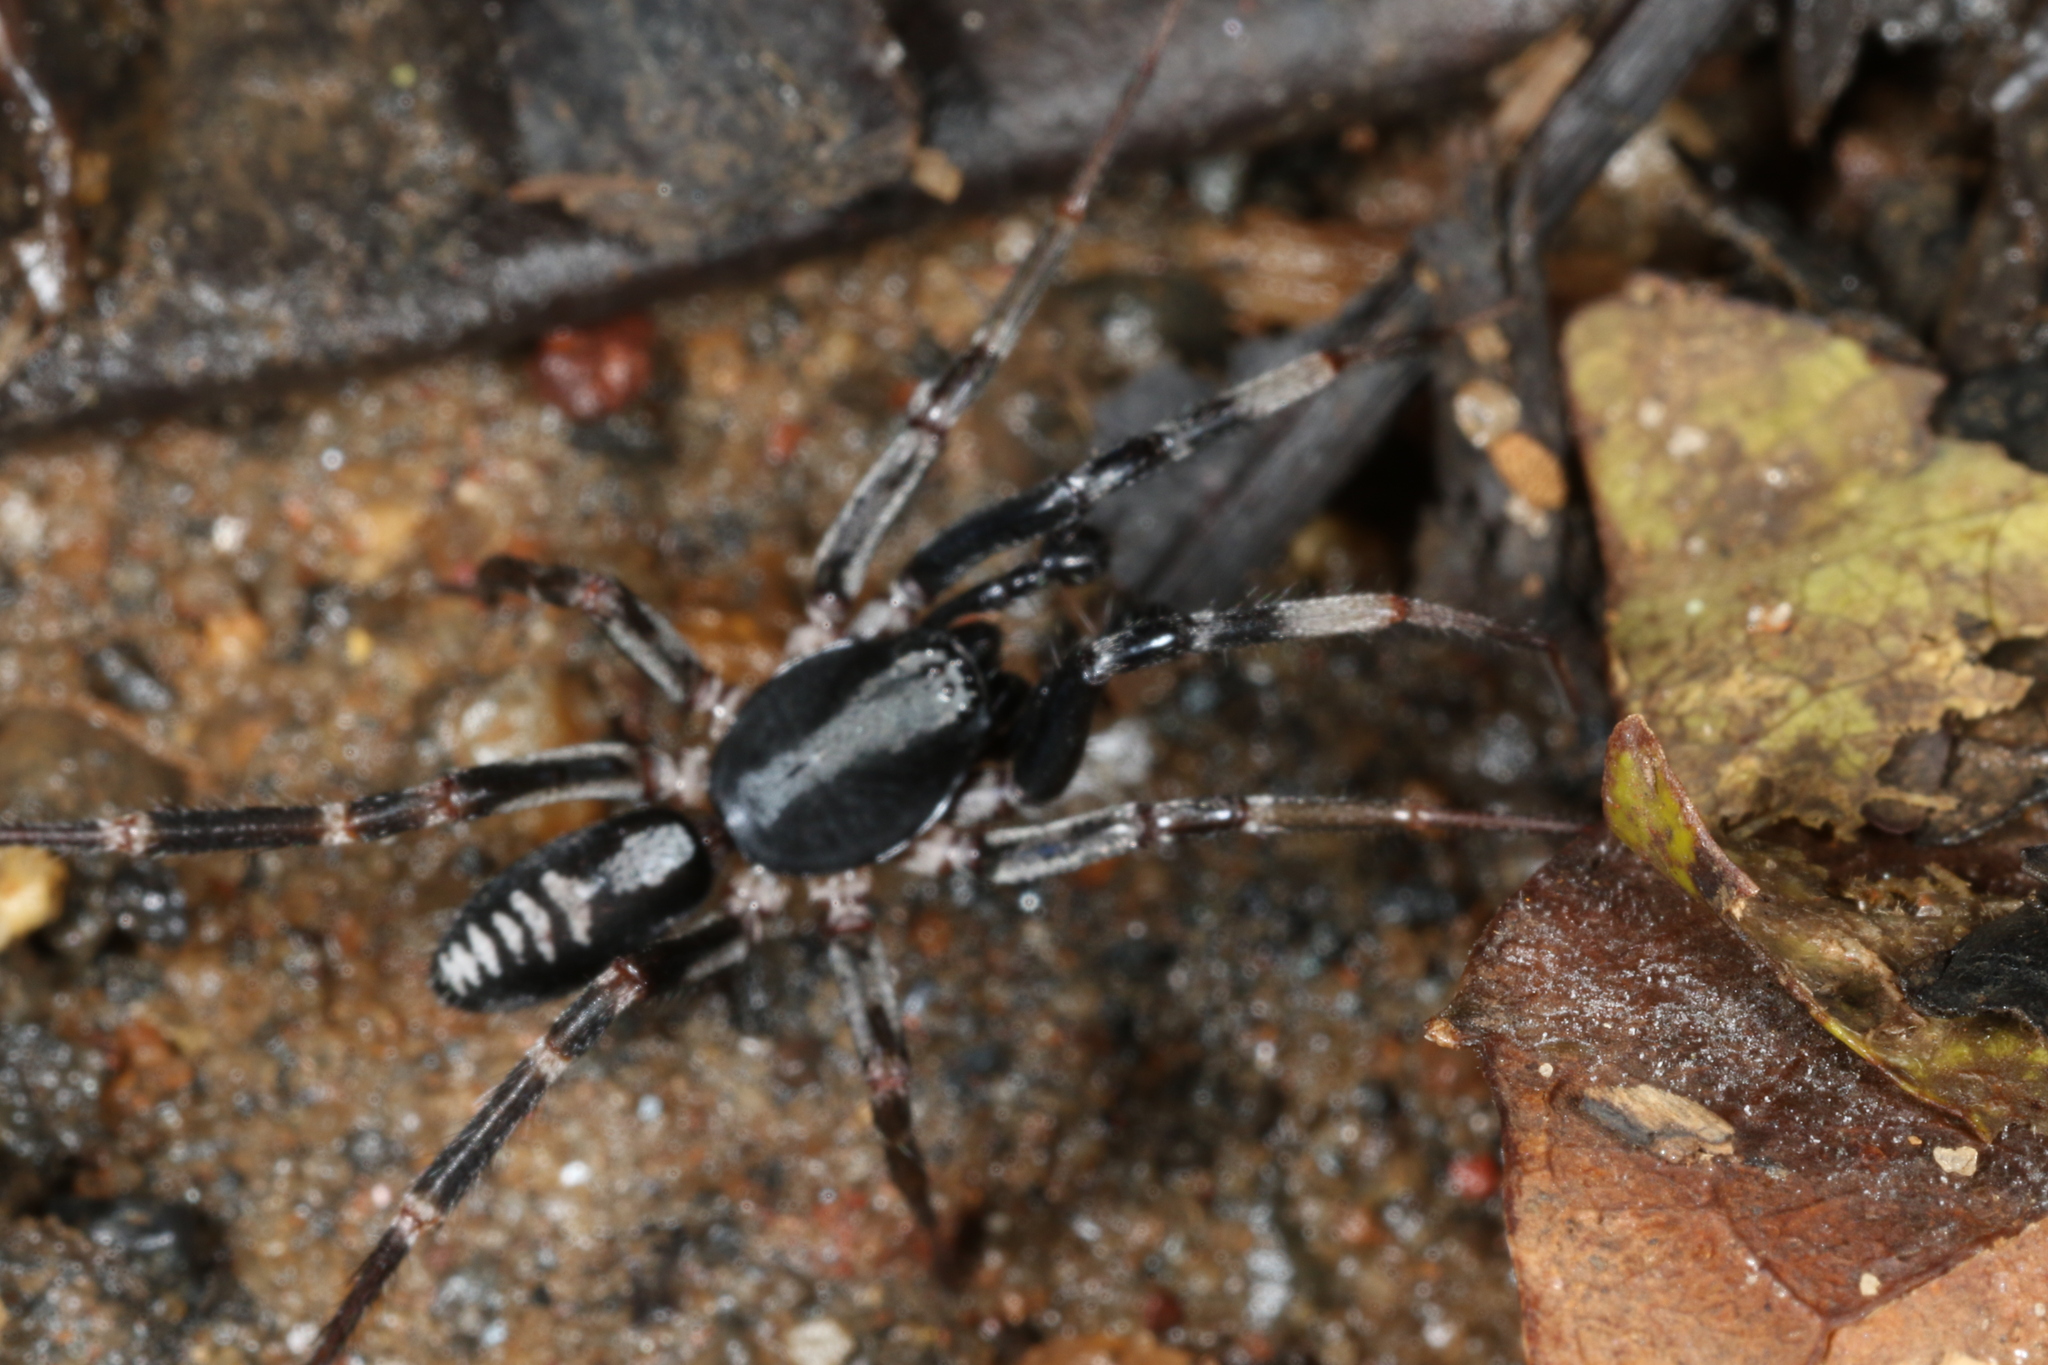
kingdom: Animalia
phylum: Arthropoda
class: Arachnida
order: Araneae
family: Corinnidae
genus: Ianduba
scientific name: Ianduba varia
